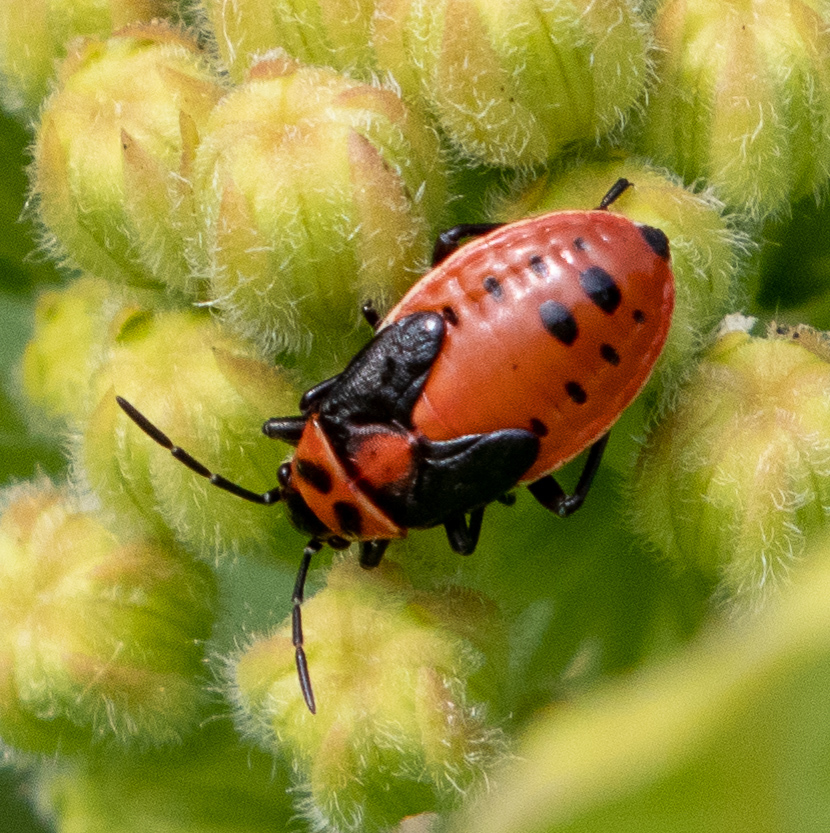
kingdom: Animalia
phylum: Arthropoda
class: Insecta
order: Hemiptera
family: Lygaeidae
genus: Lygaeus
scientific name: Lygaeus kalmii
